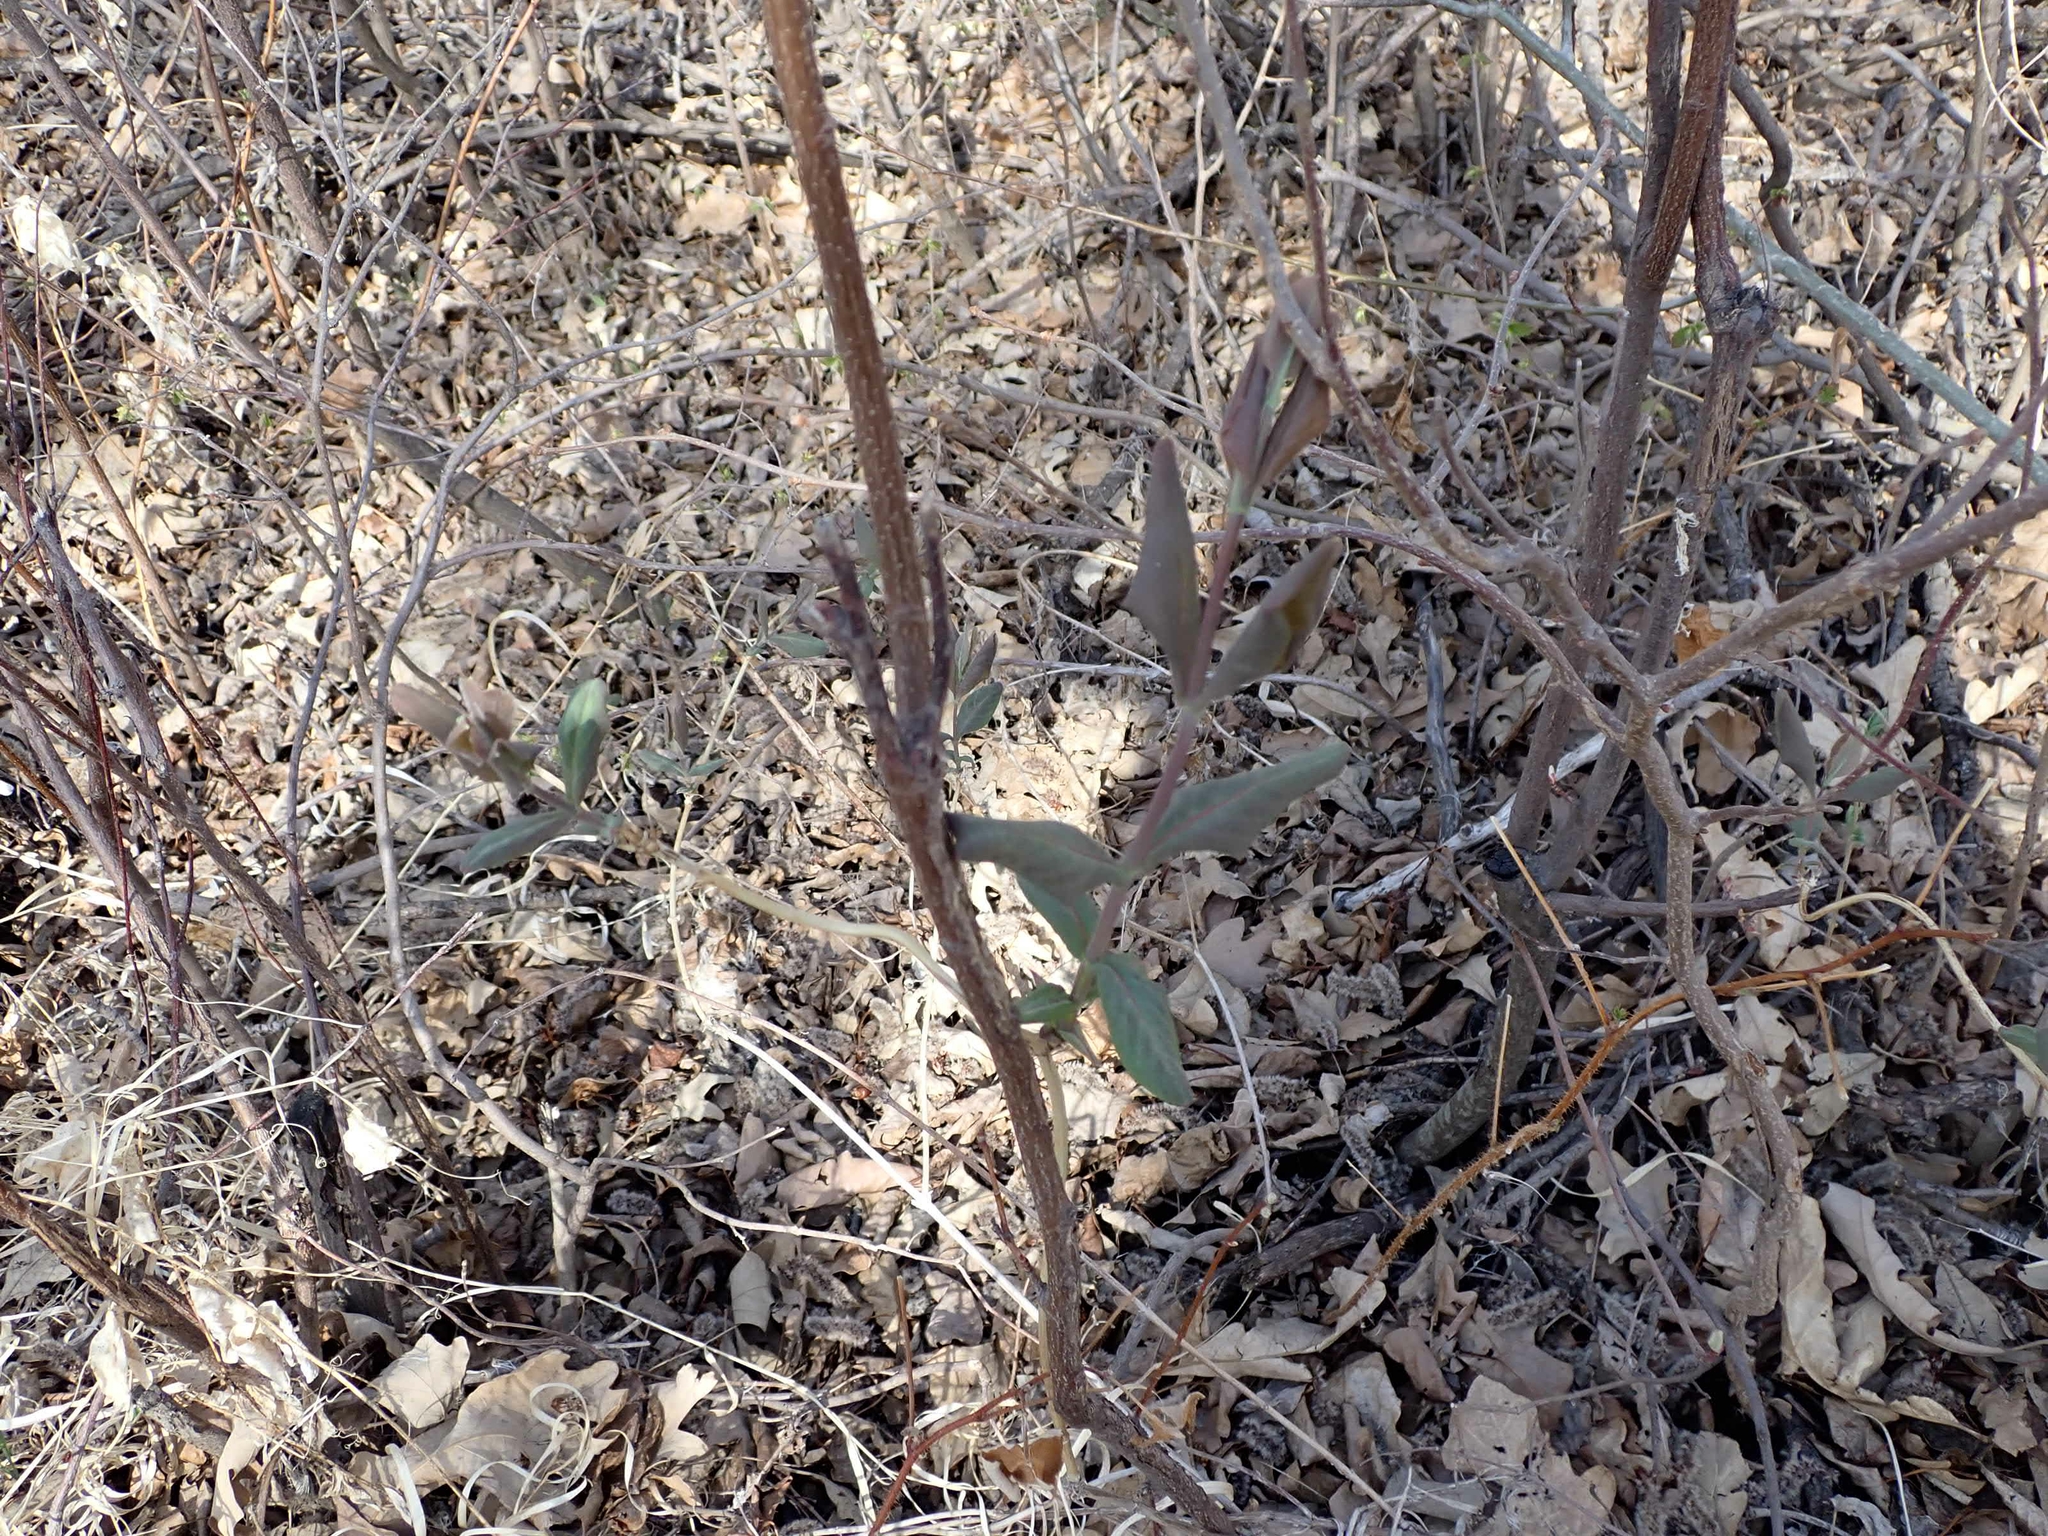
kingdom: Plantae
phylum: Tracheophyta
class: Magnoliopsida
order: Dipsacales
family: Caprifoliaceae
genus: Lonicera
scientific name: Lonicera dioica
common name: Limber honeysuckle
